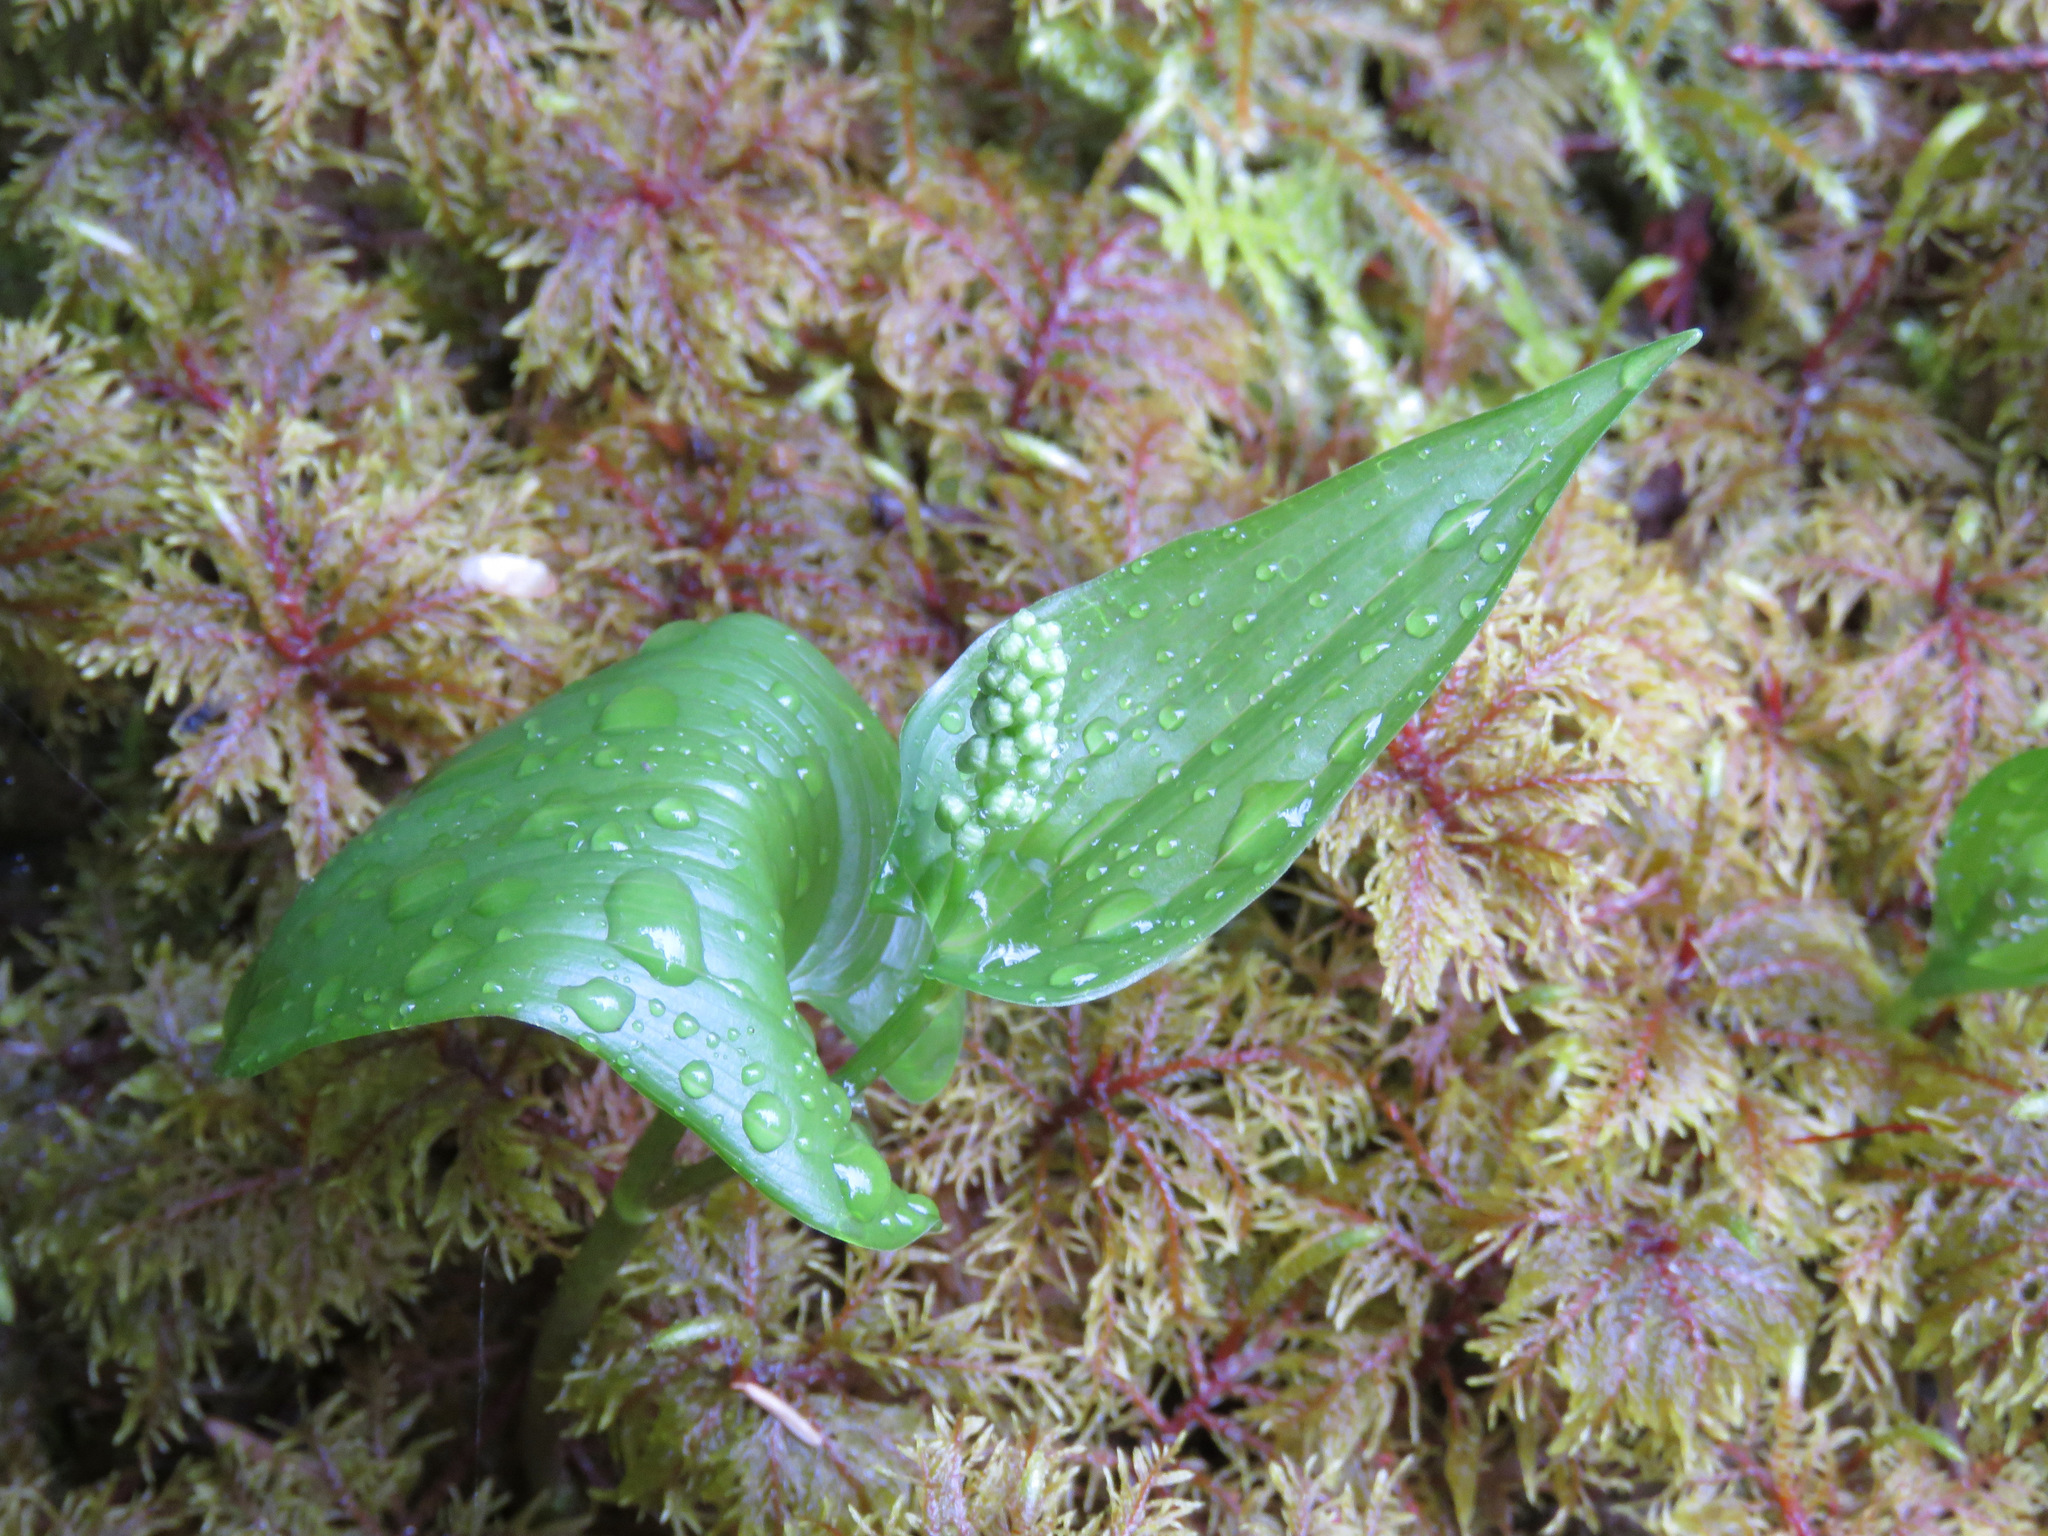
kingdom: Plantae
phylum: Tracheophyta
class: Liliopsida
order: Asparagales
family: Asparagaceae
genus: Maianthemum
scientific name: Maianthemum dilatatum
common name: False lily-of-the-valley
